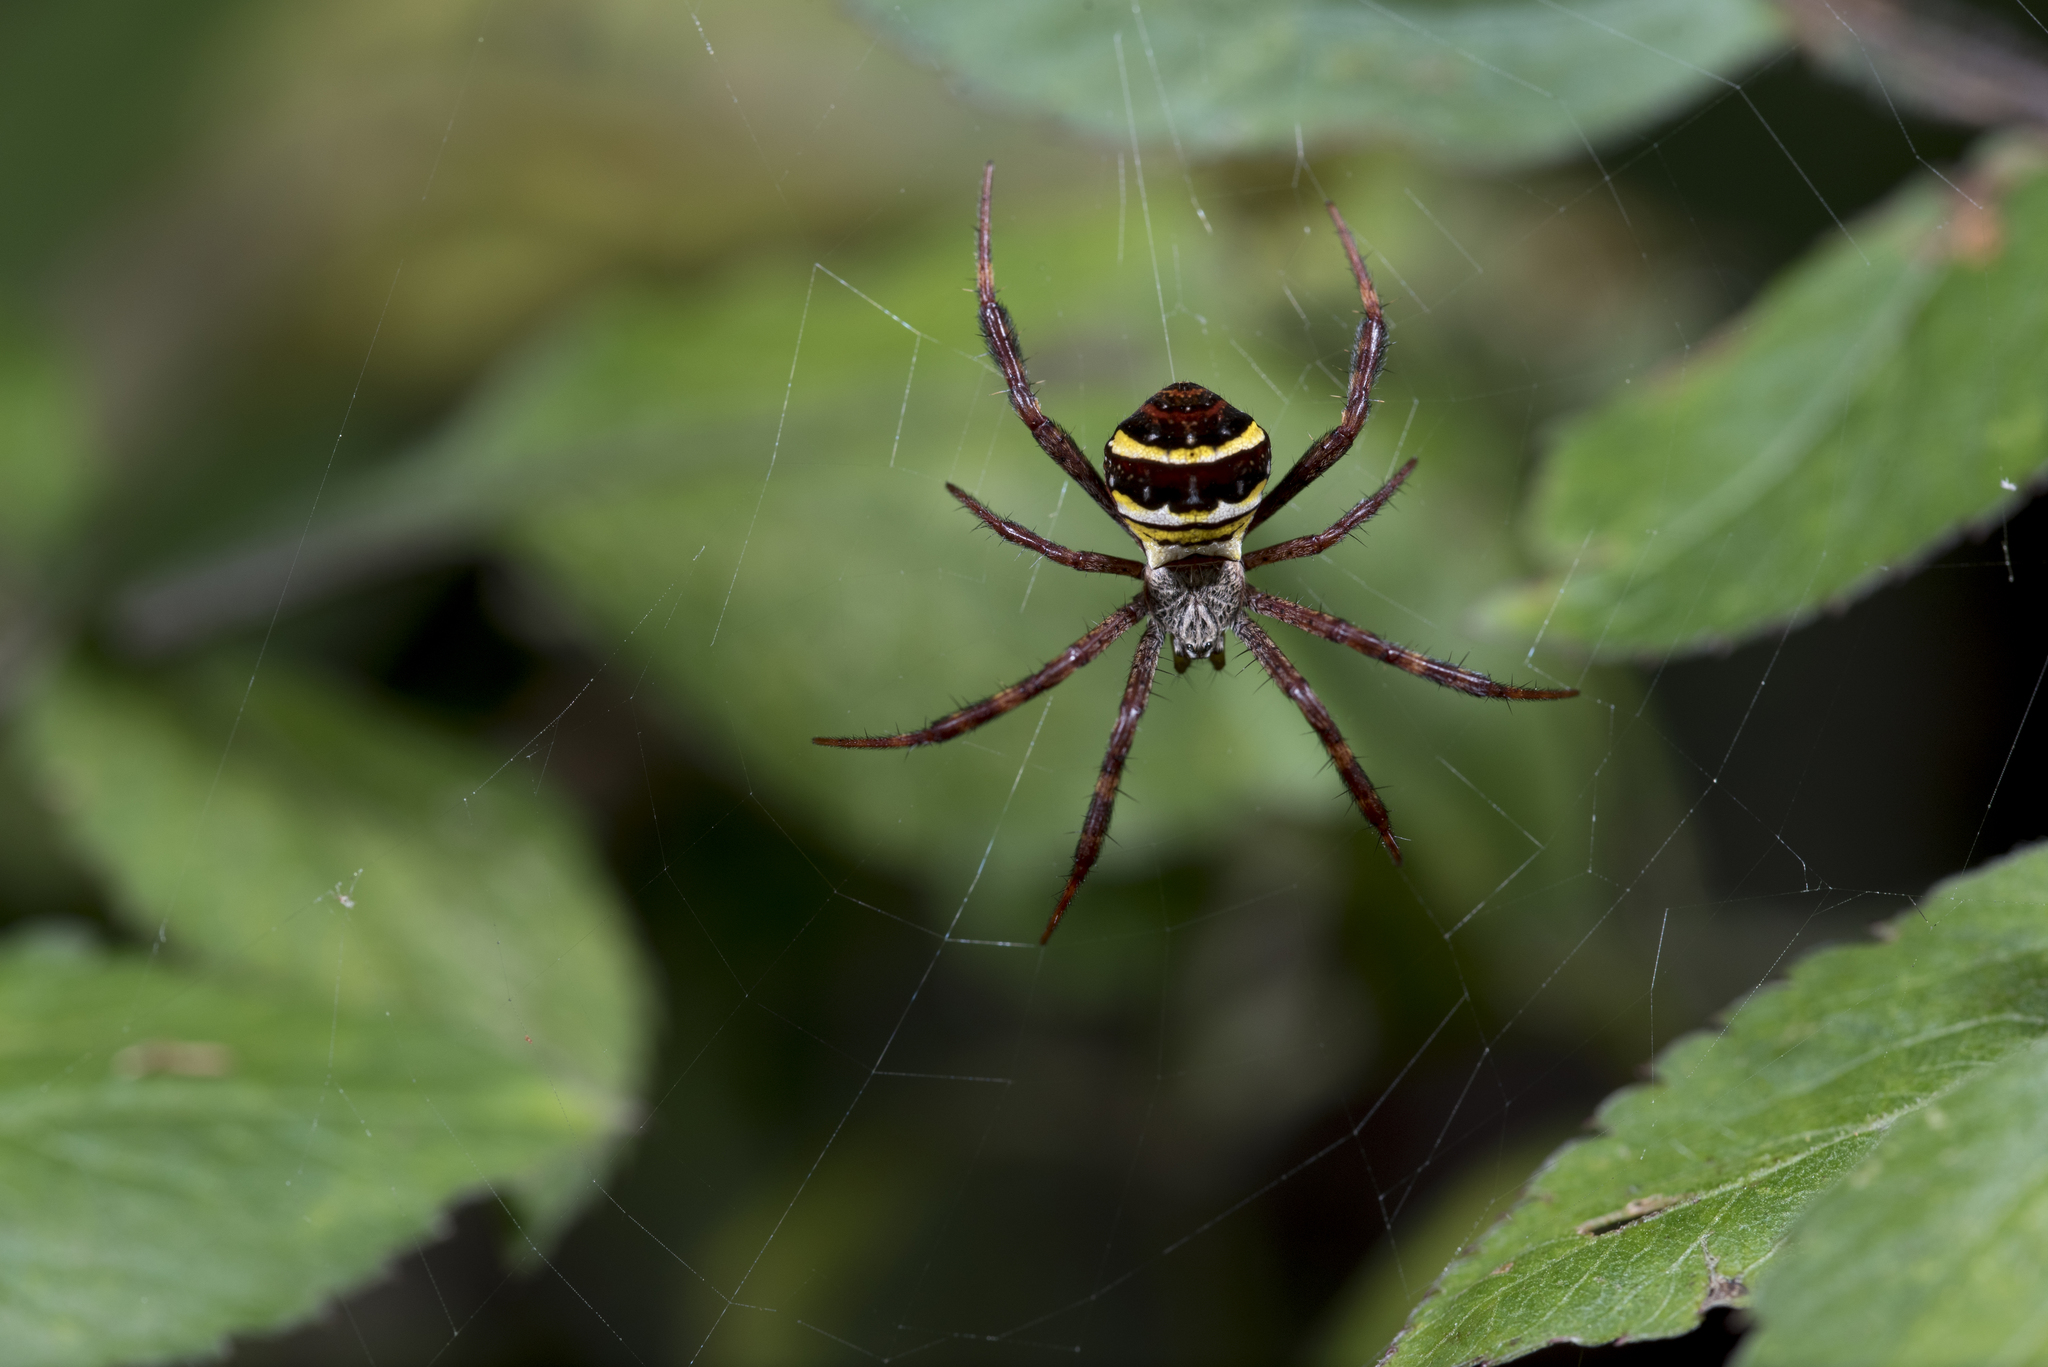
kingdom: Animalia
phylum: Arthropoda
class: Arachnida
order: Araneae
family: Araneidae
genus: Argiope
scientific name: Argiope aetheroides
